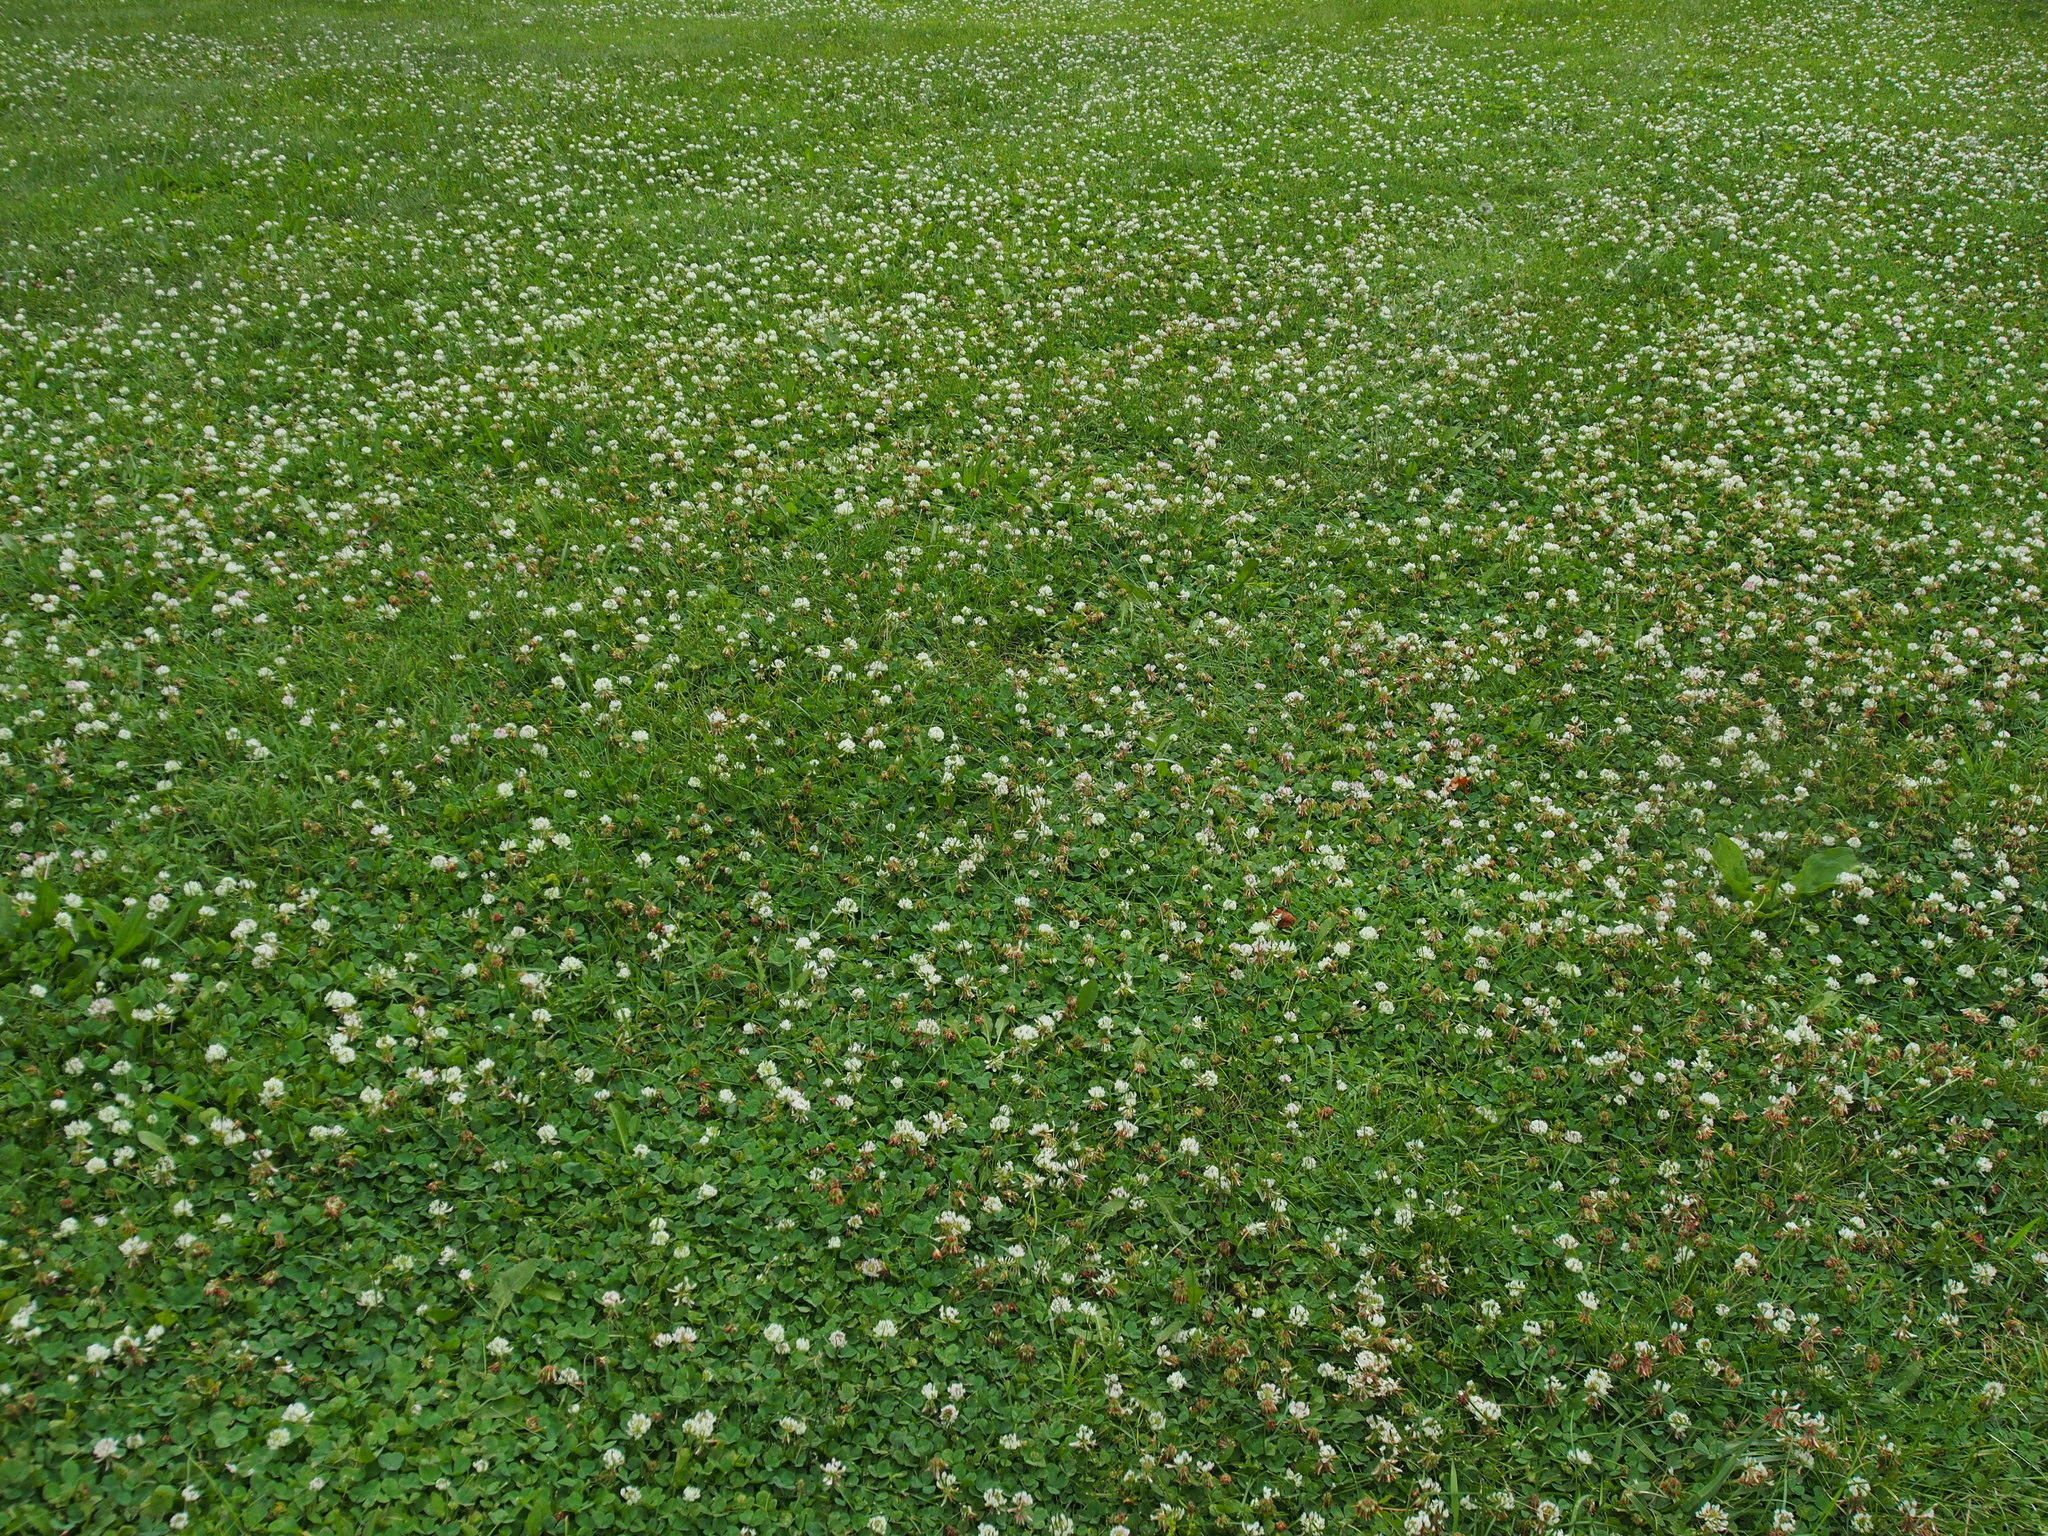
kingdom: Plantae
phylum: Tracheophyta
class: Magnoliopsida
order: Fabales
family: Fabaceae
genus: Trifolium
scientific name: Trifolium repens
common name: White clover
